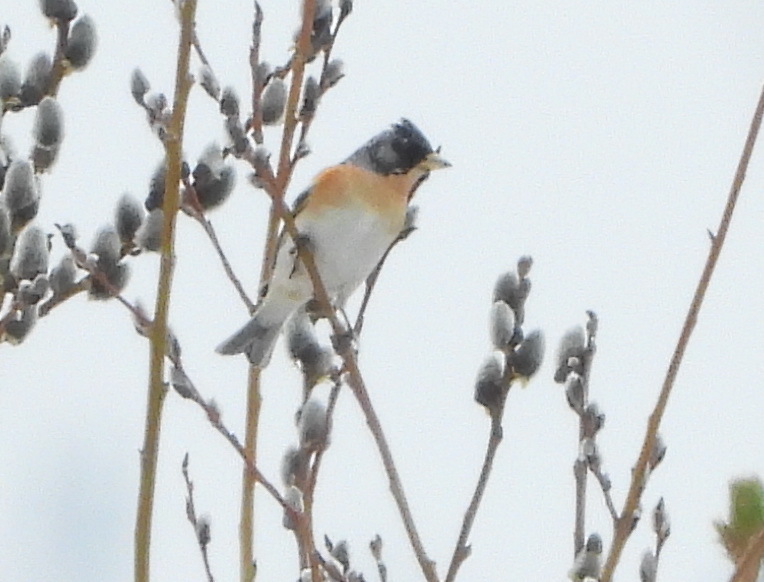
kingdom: Animalia
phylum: Chordata
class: Aves
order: Passeriformes
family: Fringillidae
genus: Fringilla
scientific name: Fringilla montifringilla
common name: Brambling
